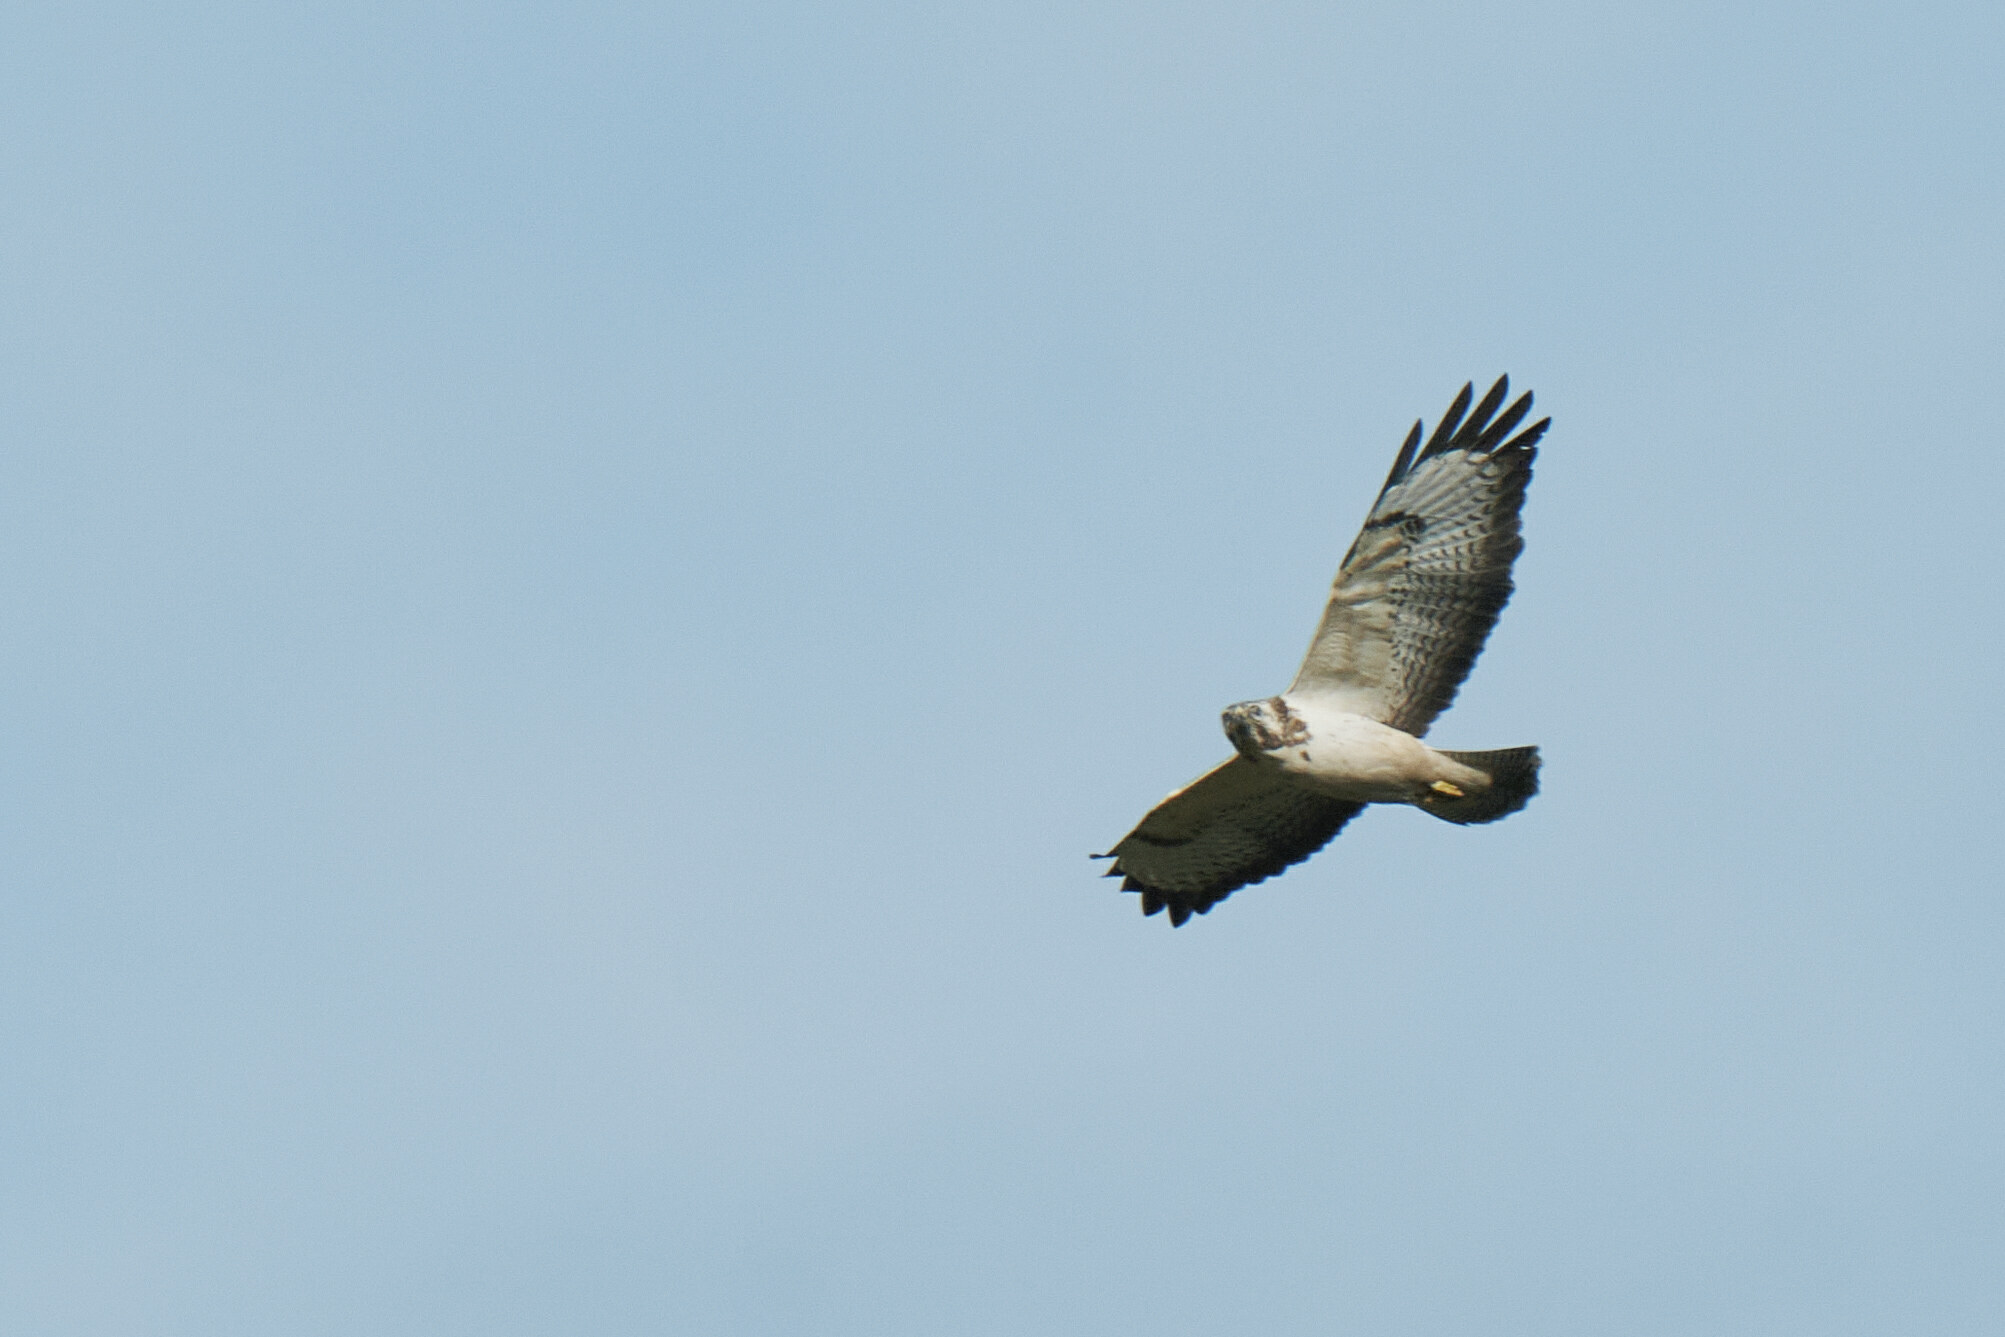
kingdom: Animalia
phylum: Chordata
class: Aves
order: Accipitriformes
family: Accipitridae
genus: Buteo
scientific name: Buteo buteo
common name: Common buzzard
